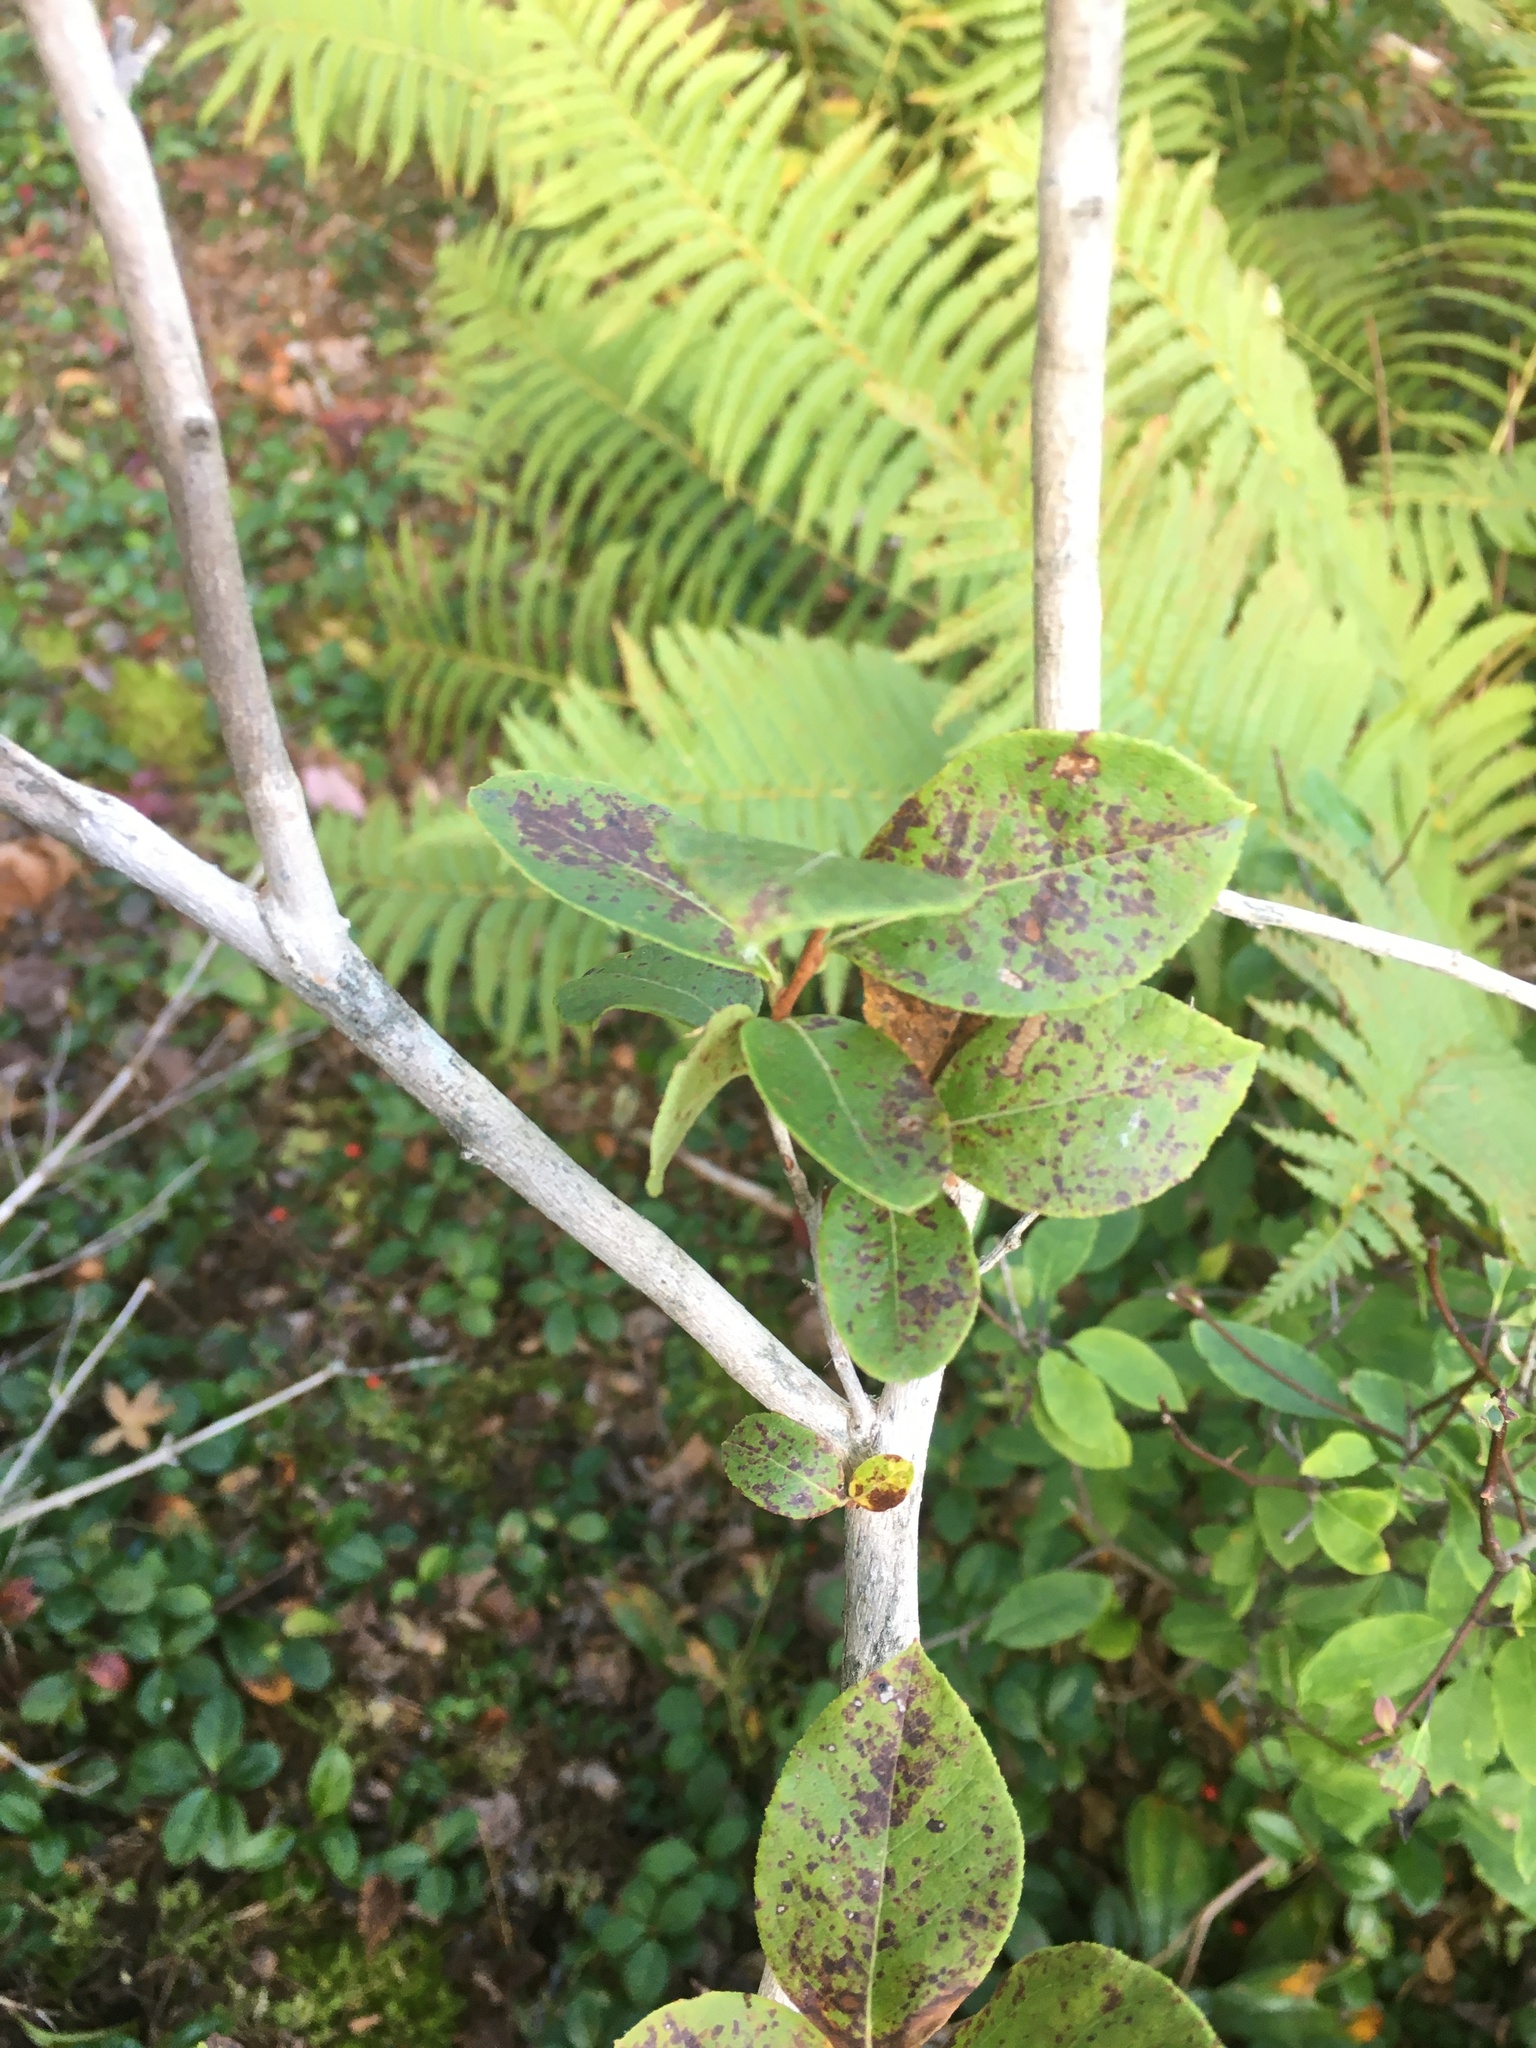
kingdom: Plantae
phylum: Tracheophyta
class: Magnoliopsida
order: Ericales
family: Ericaceae
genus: Lyonia
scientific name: Lyonia ligustrina
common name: Maleberry
